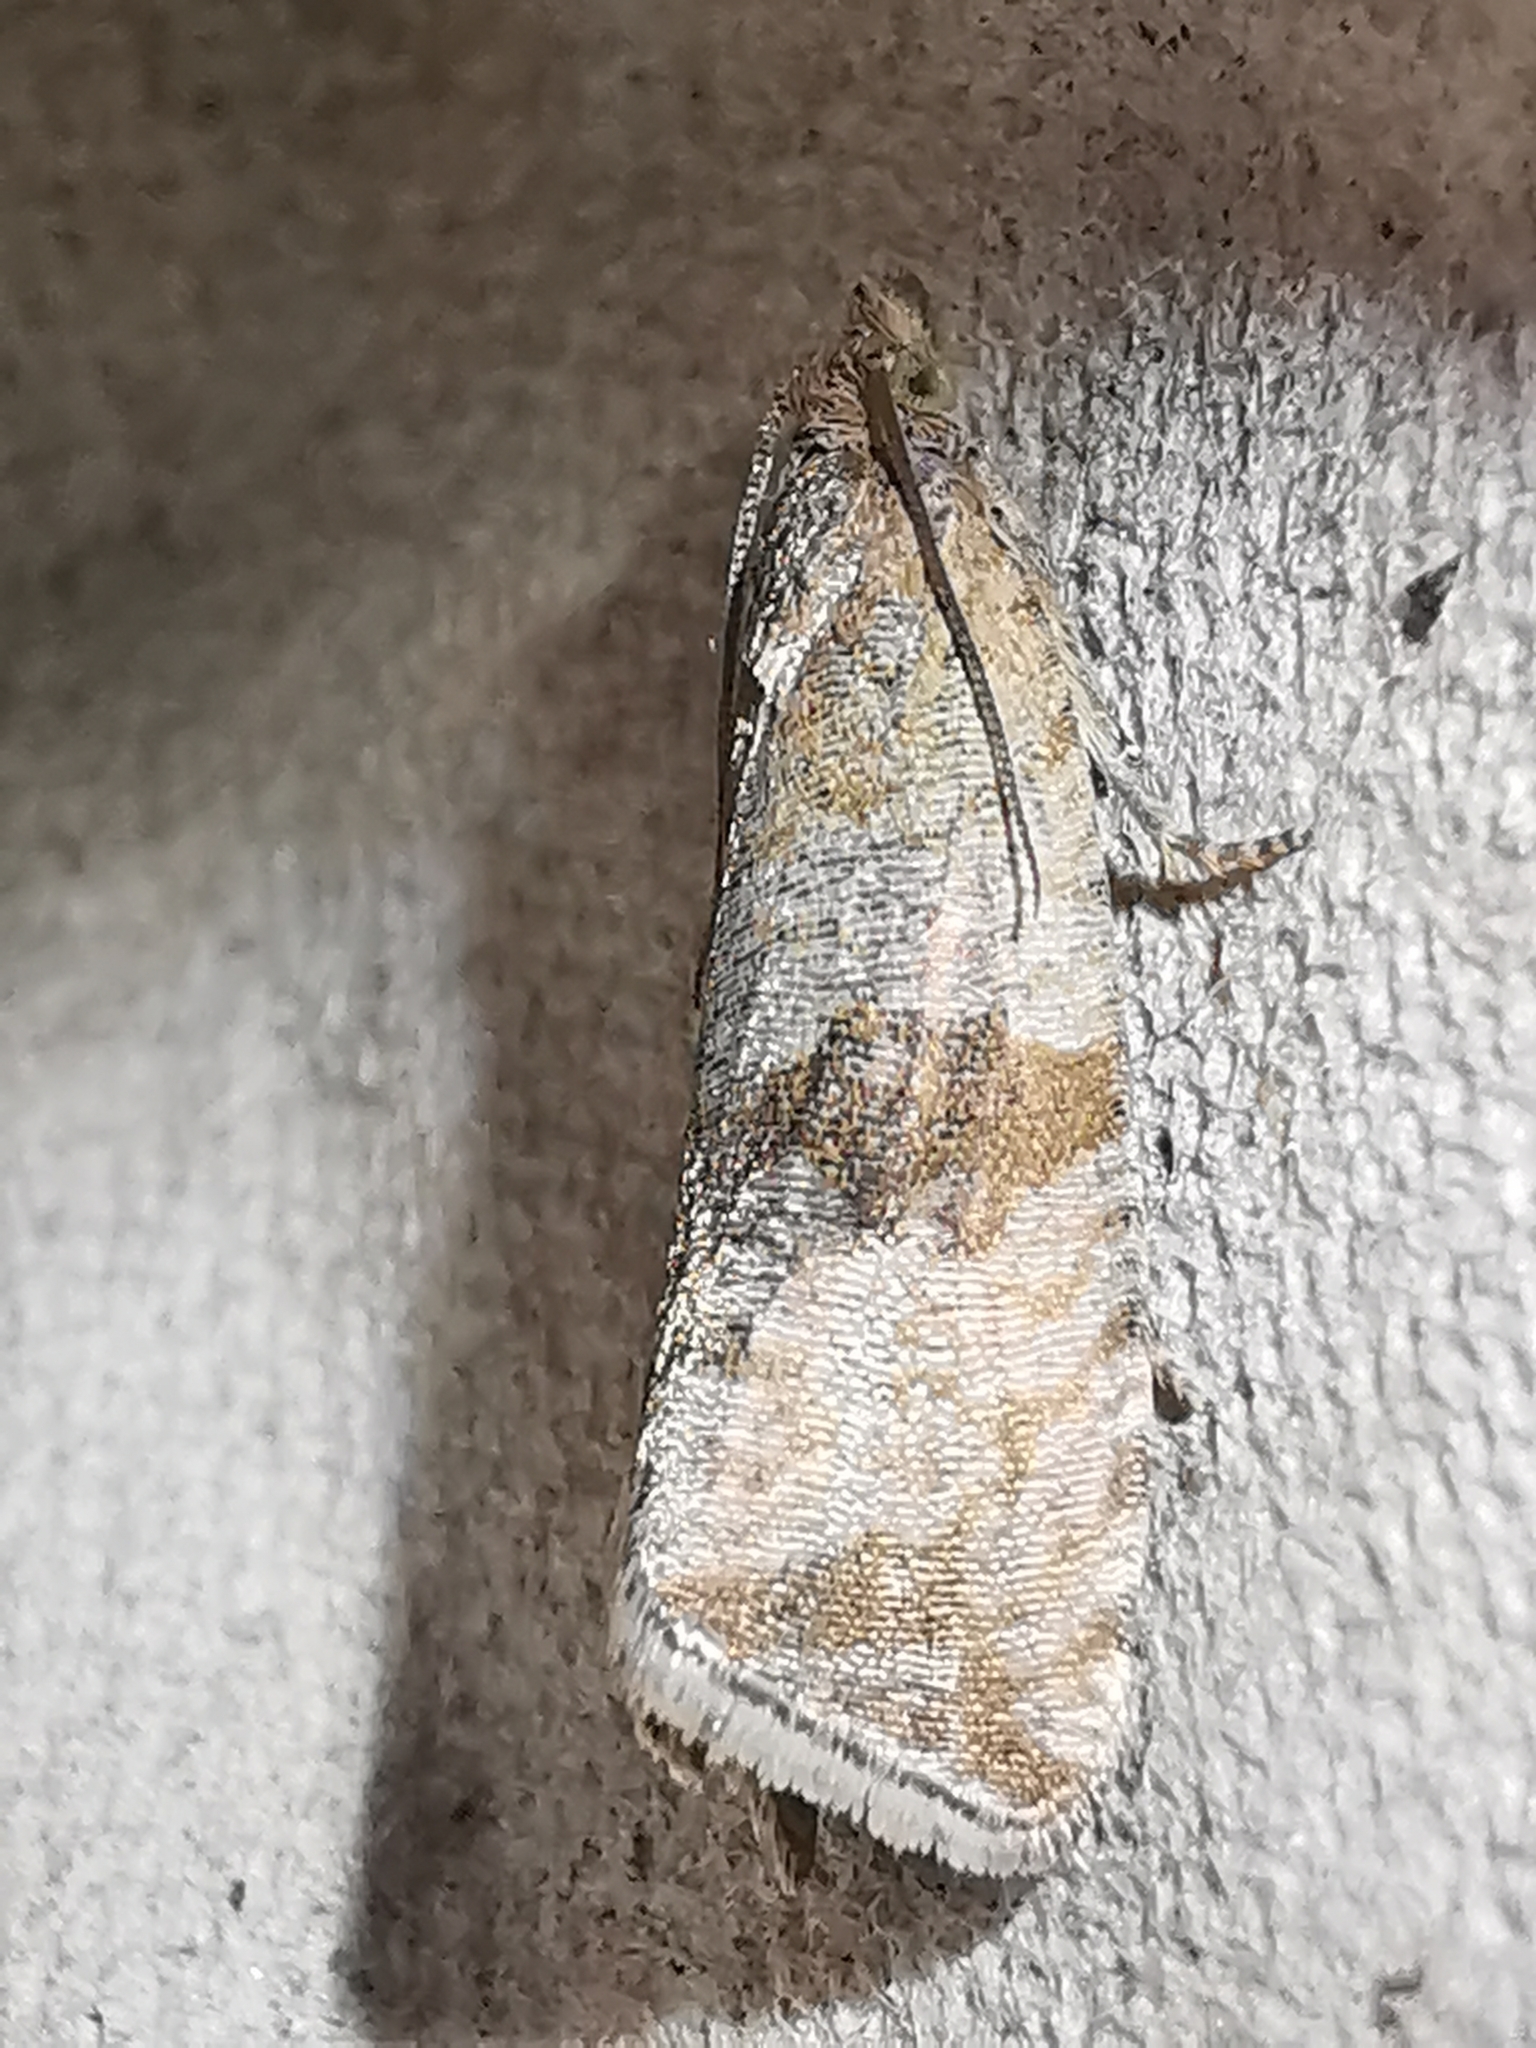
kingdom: Animalia
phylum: Arthropoda
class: Insecta
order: Lepidoptera
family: Tortricidae
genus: Celypha
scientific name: Celypha striana
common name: Barred marble
